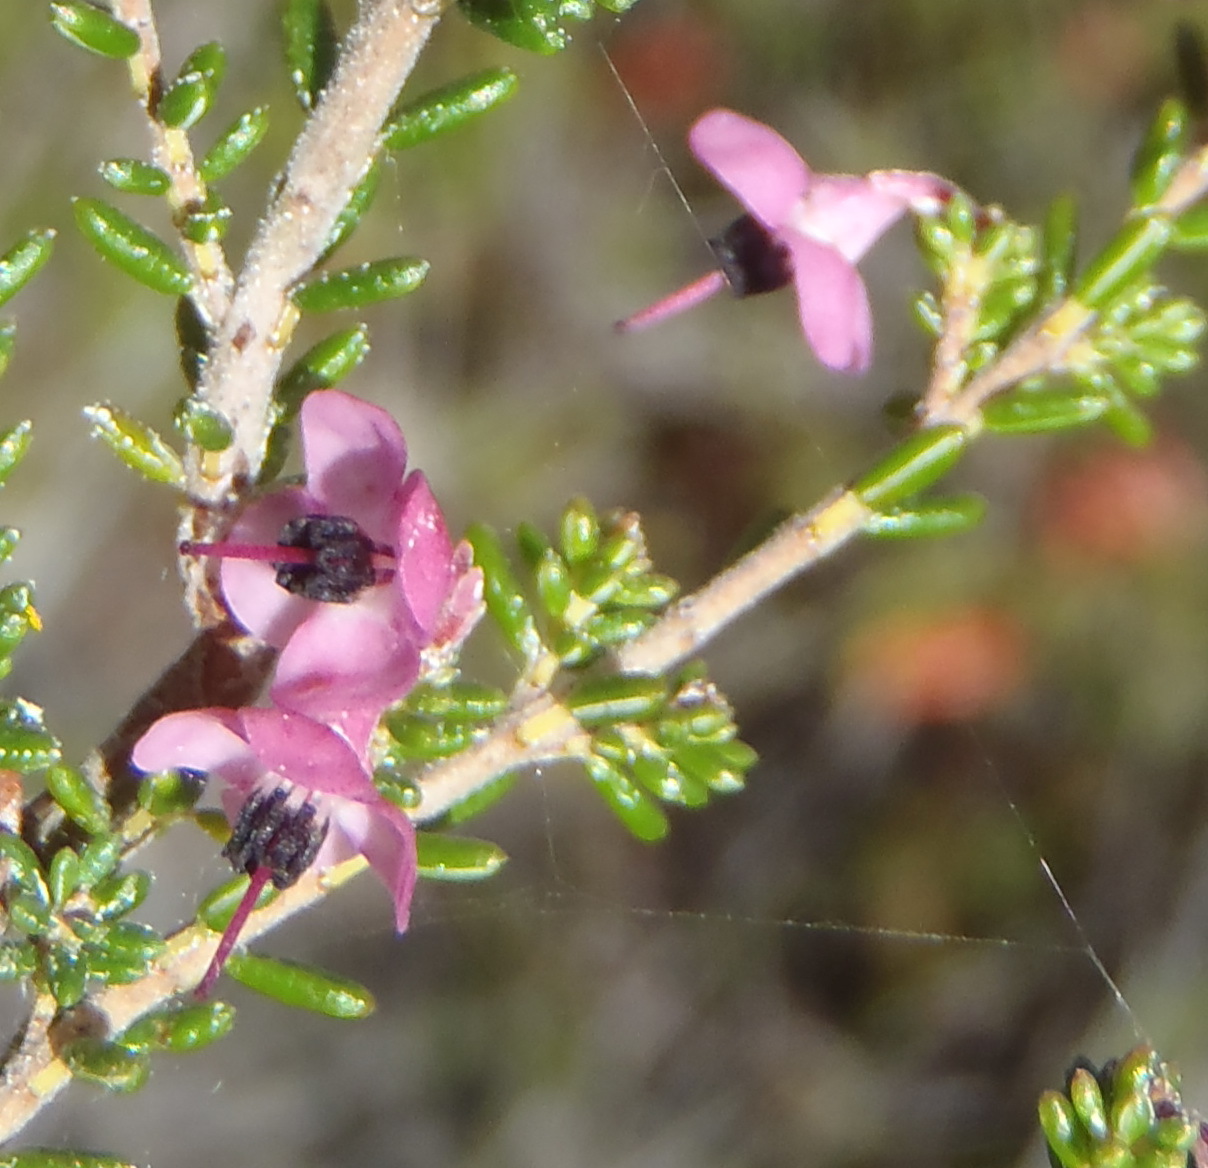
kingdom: Plantae
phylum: Tracheophyta
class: Magnoliopsida
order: Ericales
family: Ericaceae
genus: Erica
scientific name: Erica melanthera
